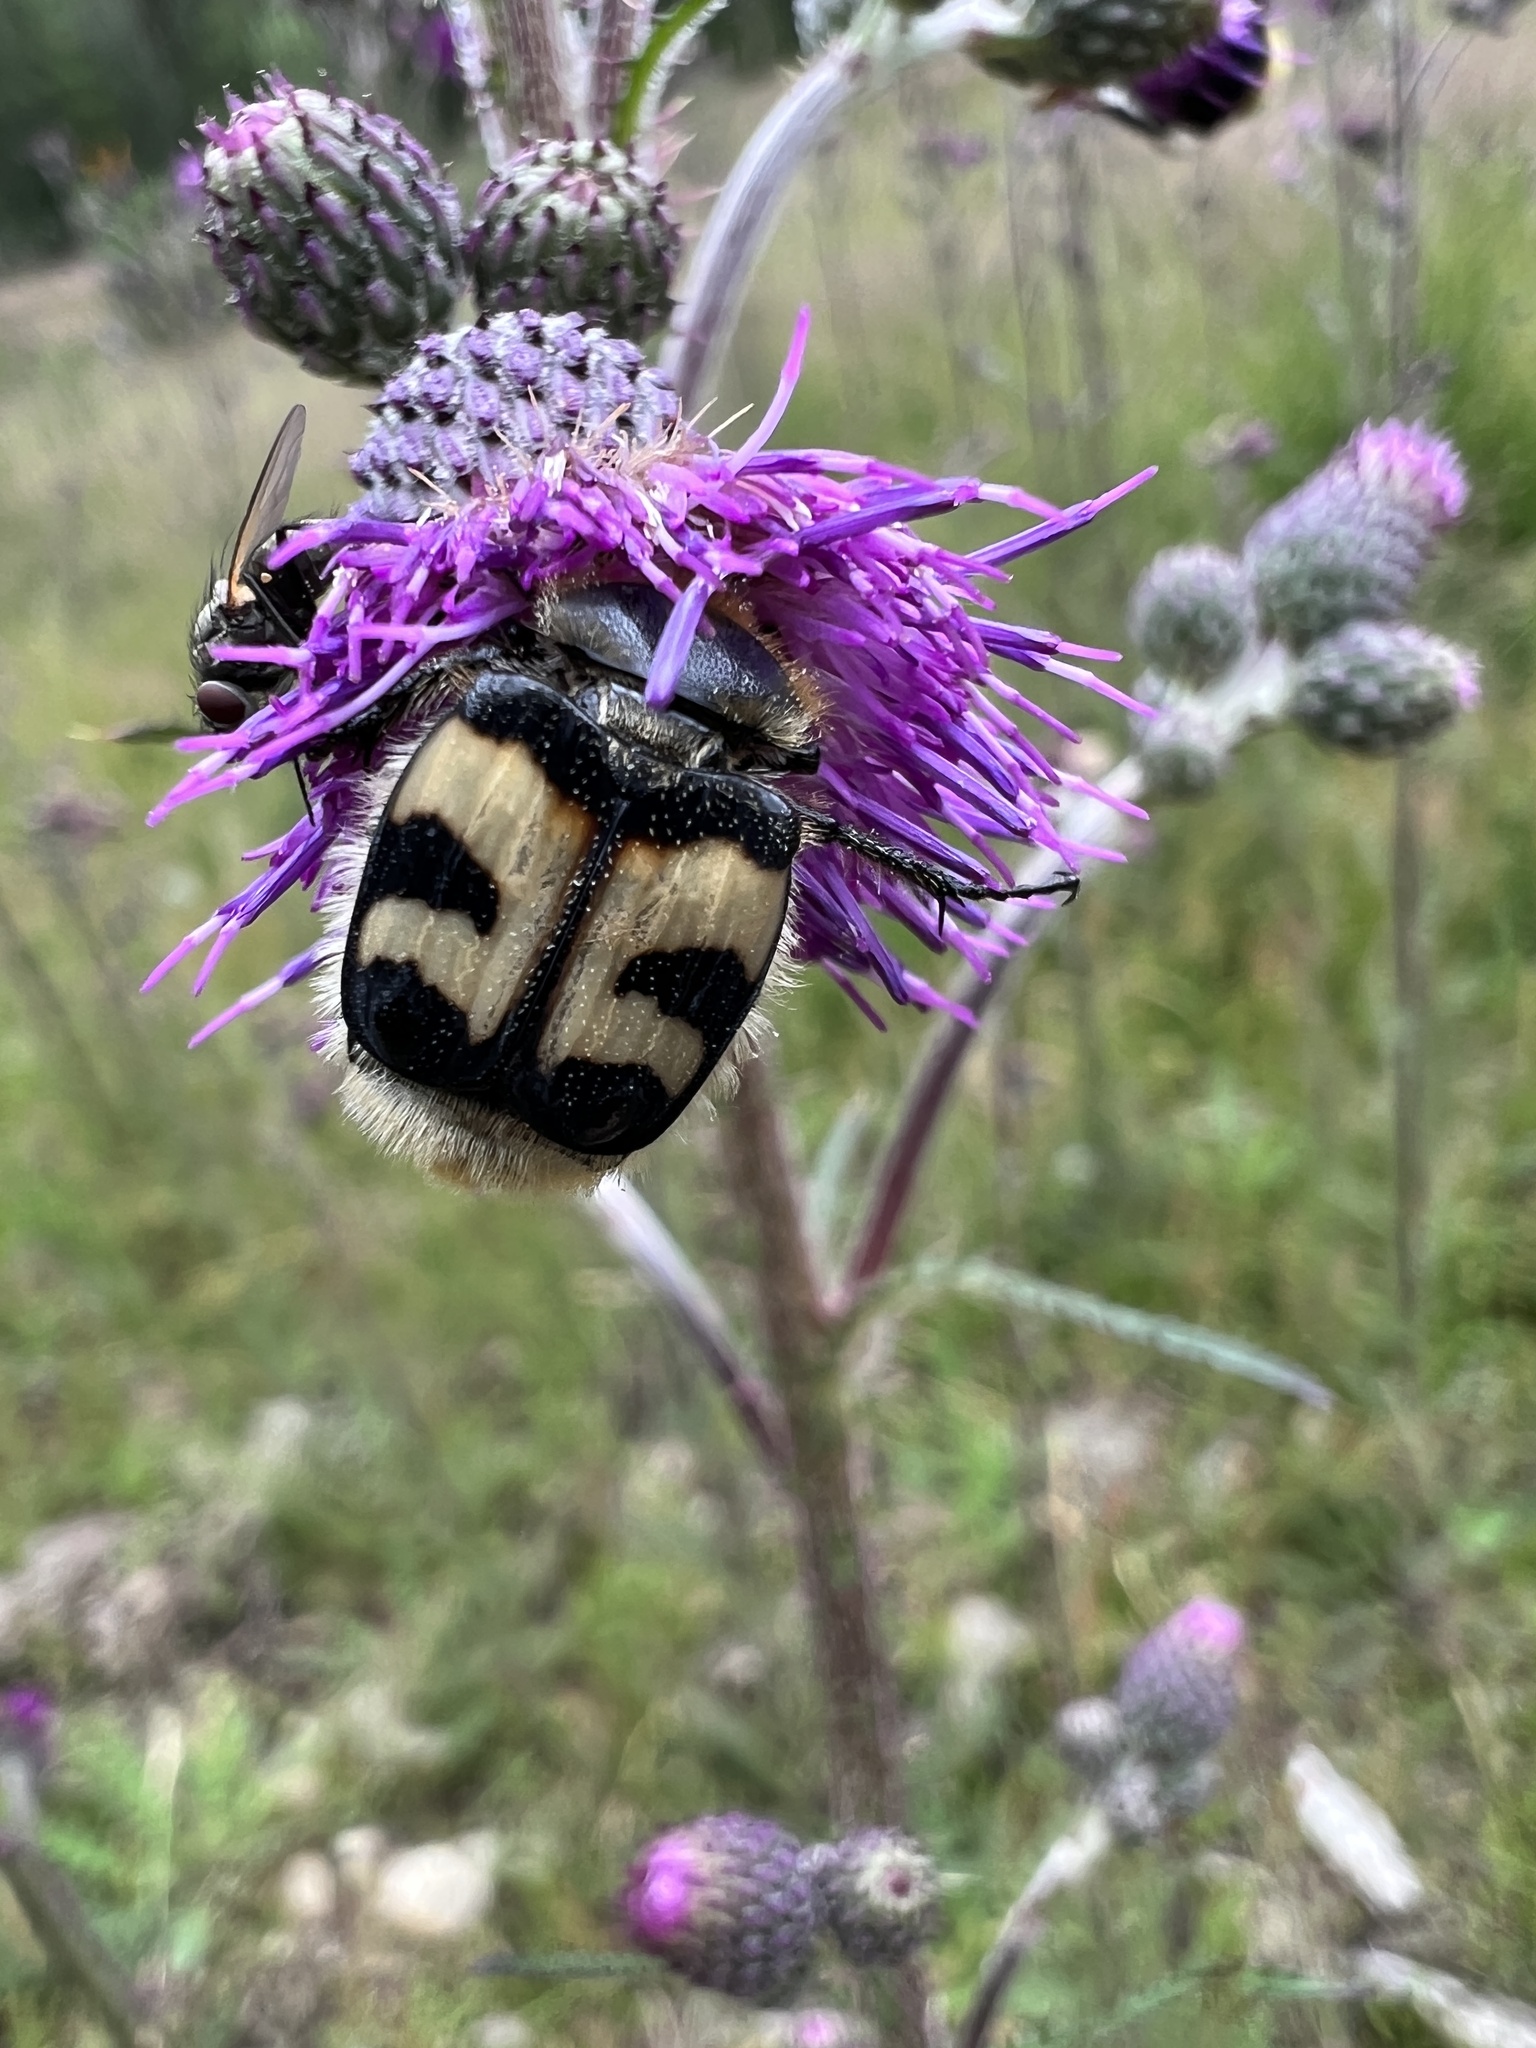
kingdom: Animalia
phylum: Arthropoda
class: Insecta
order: Coleoptera
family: Scarabaeidae
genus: Trichius
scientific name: Trichius fasciatus
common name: Bee beetle
